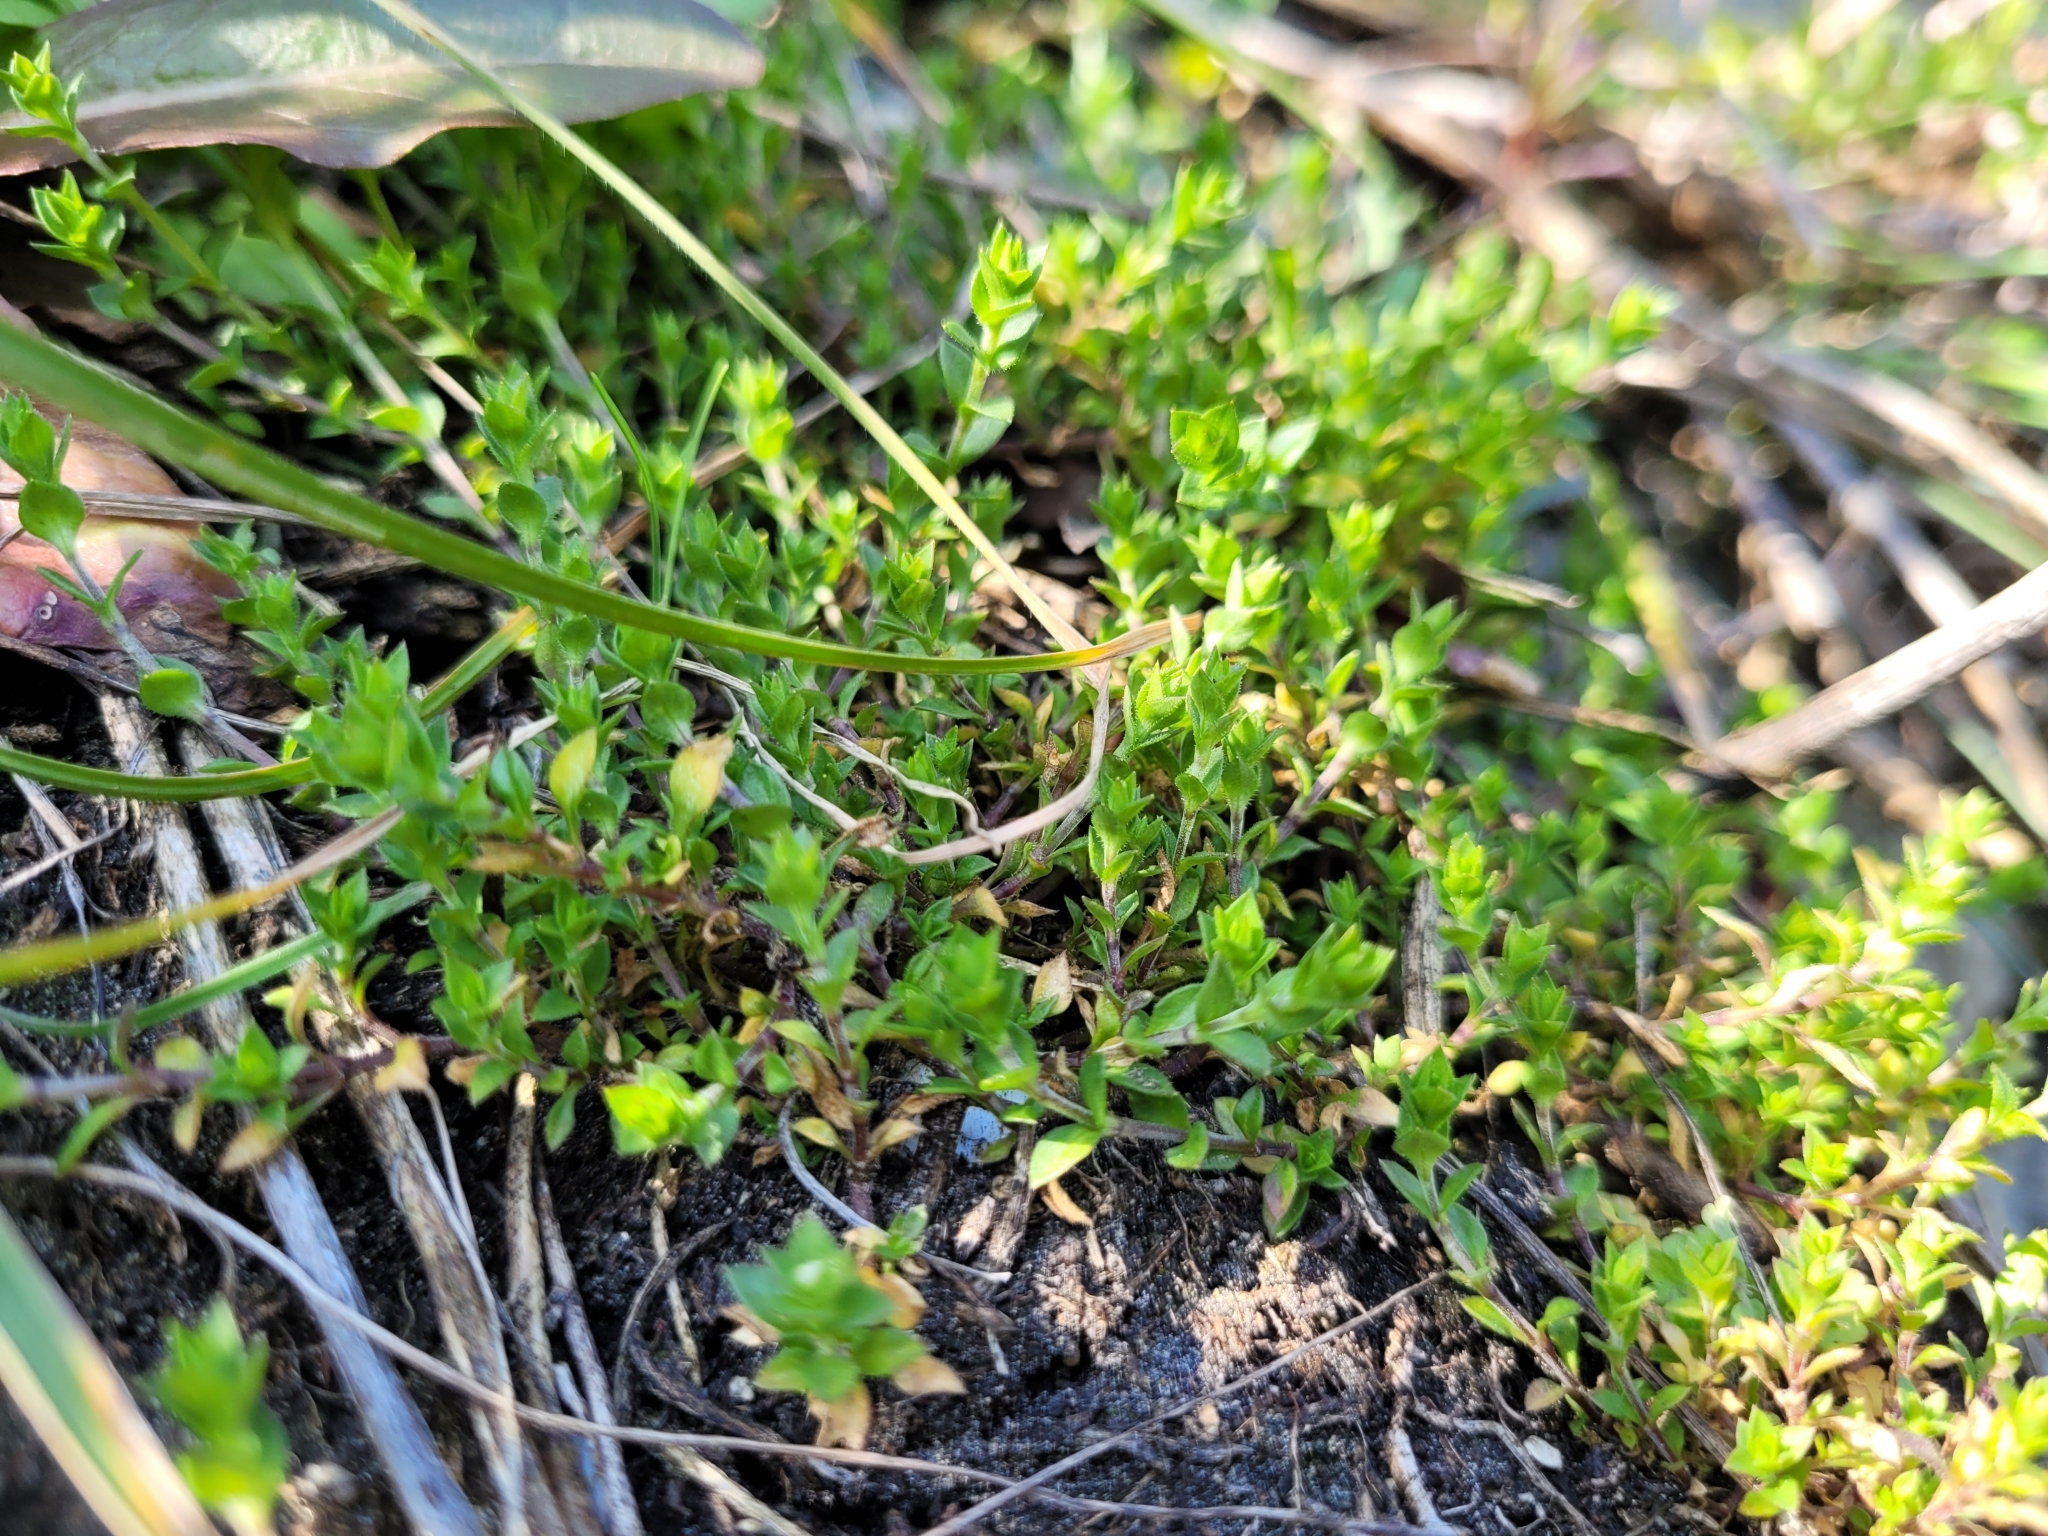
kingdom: Plantae
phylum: Tracheophyta
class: Magnoliopsida
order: Caryophyllales
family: Caryophyllaceae
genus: Arenaria
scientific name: Arenaria serpyllifolia
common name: Thyme-leaved sandwort
